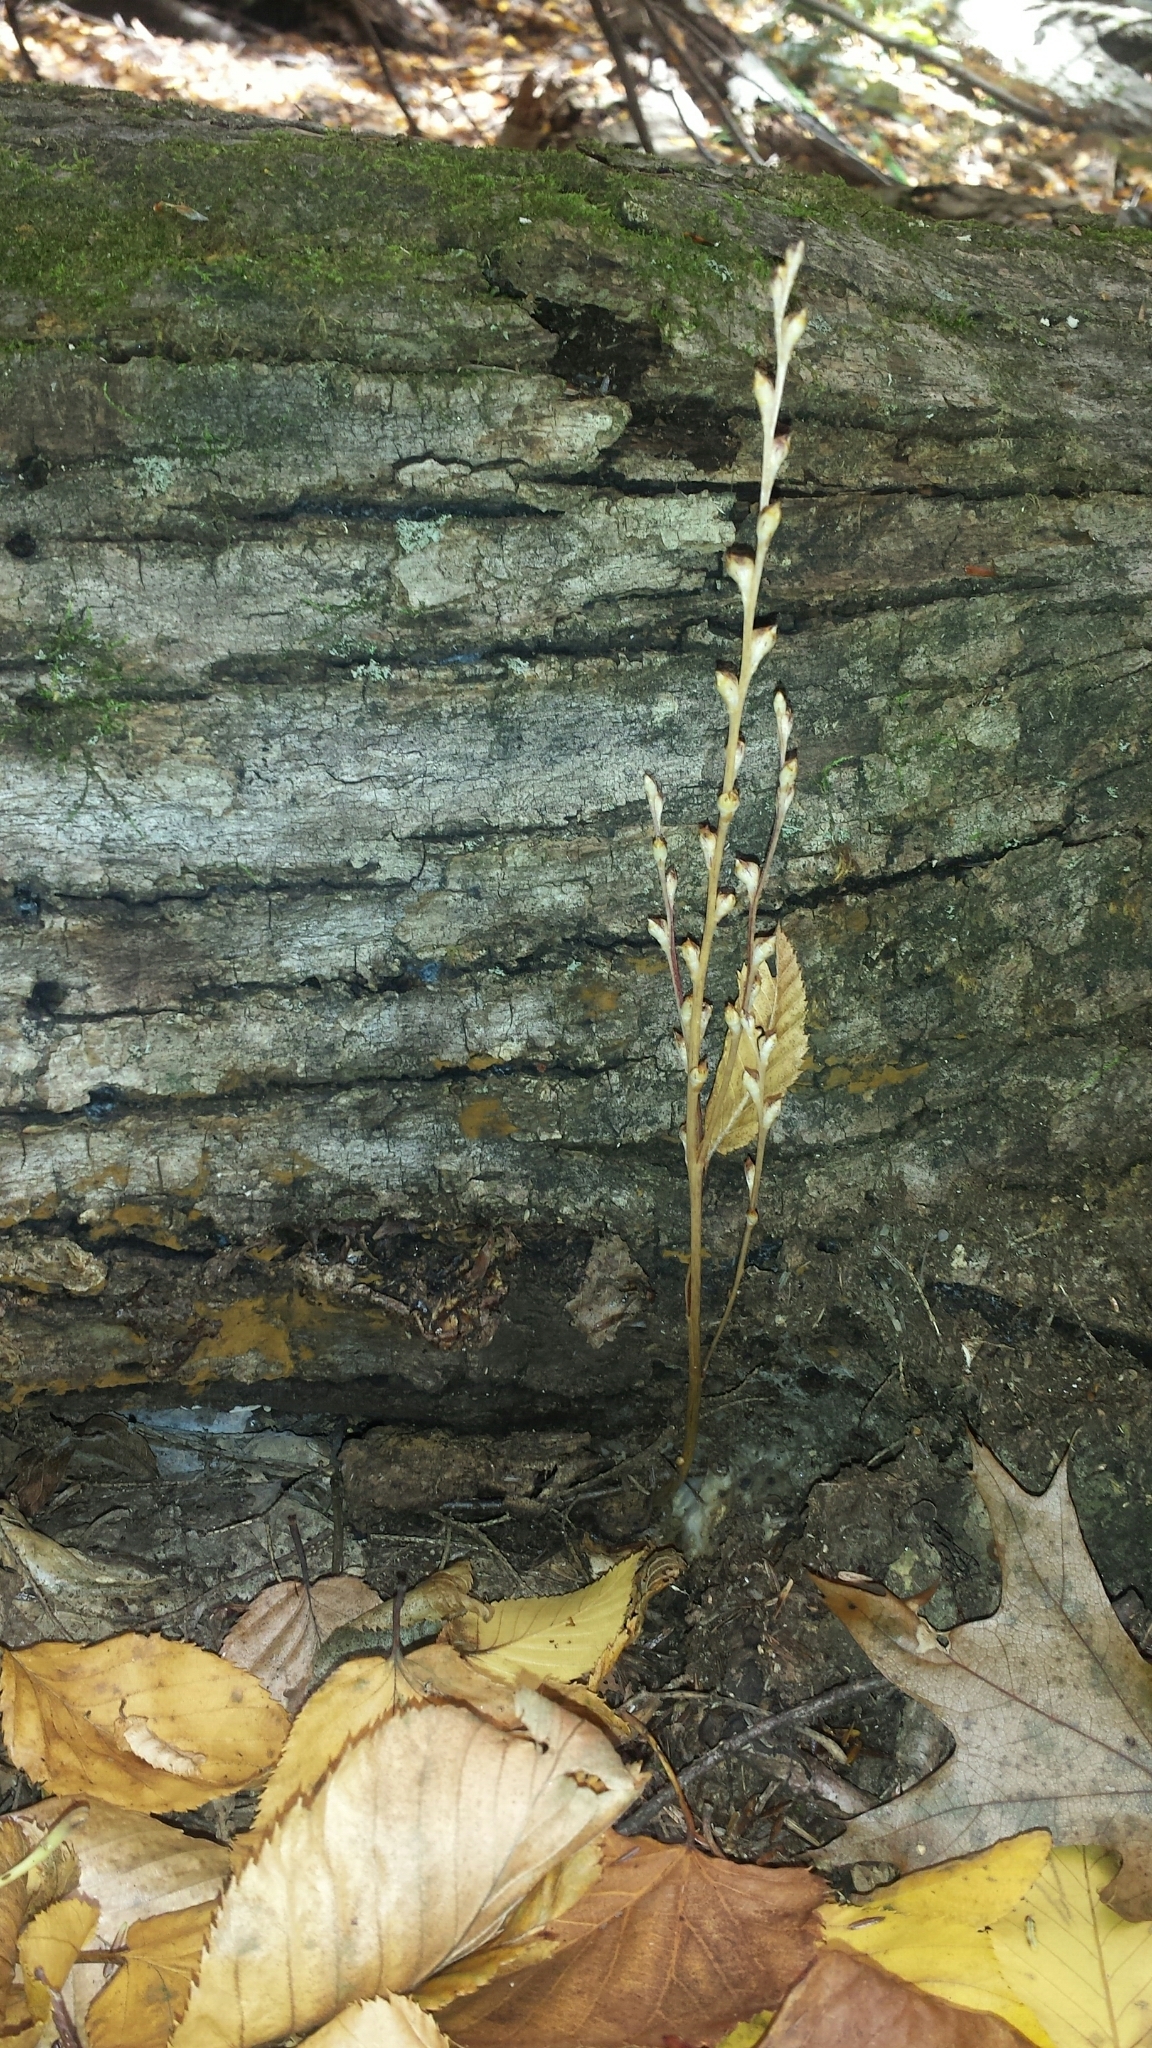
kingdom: Plantae
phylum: Tracheophyta
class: Magnoliopsida
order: Lamiales
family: Orobanchaceae
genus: Epifagus
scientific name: Epifagus virginiana
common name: Beechdrops
